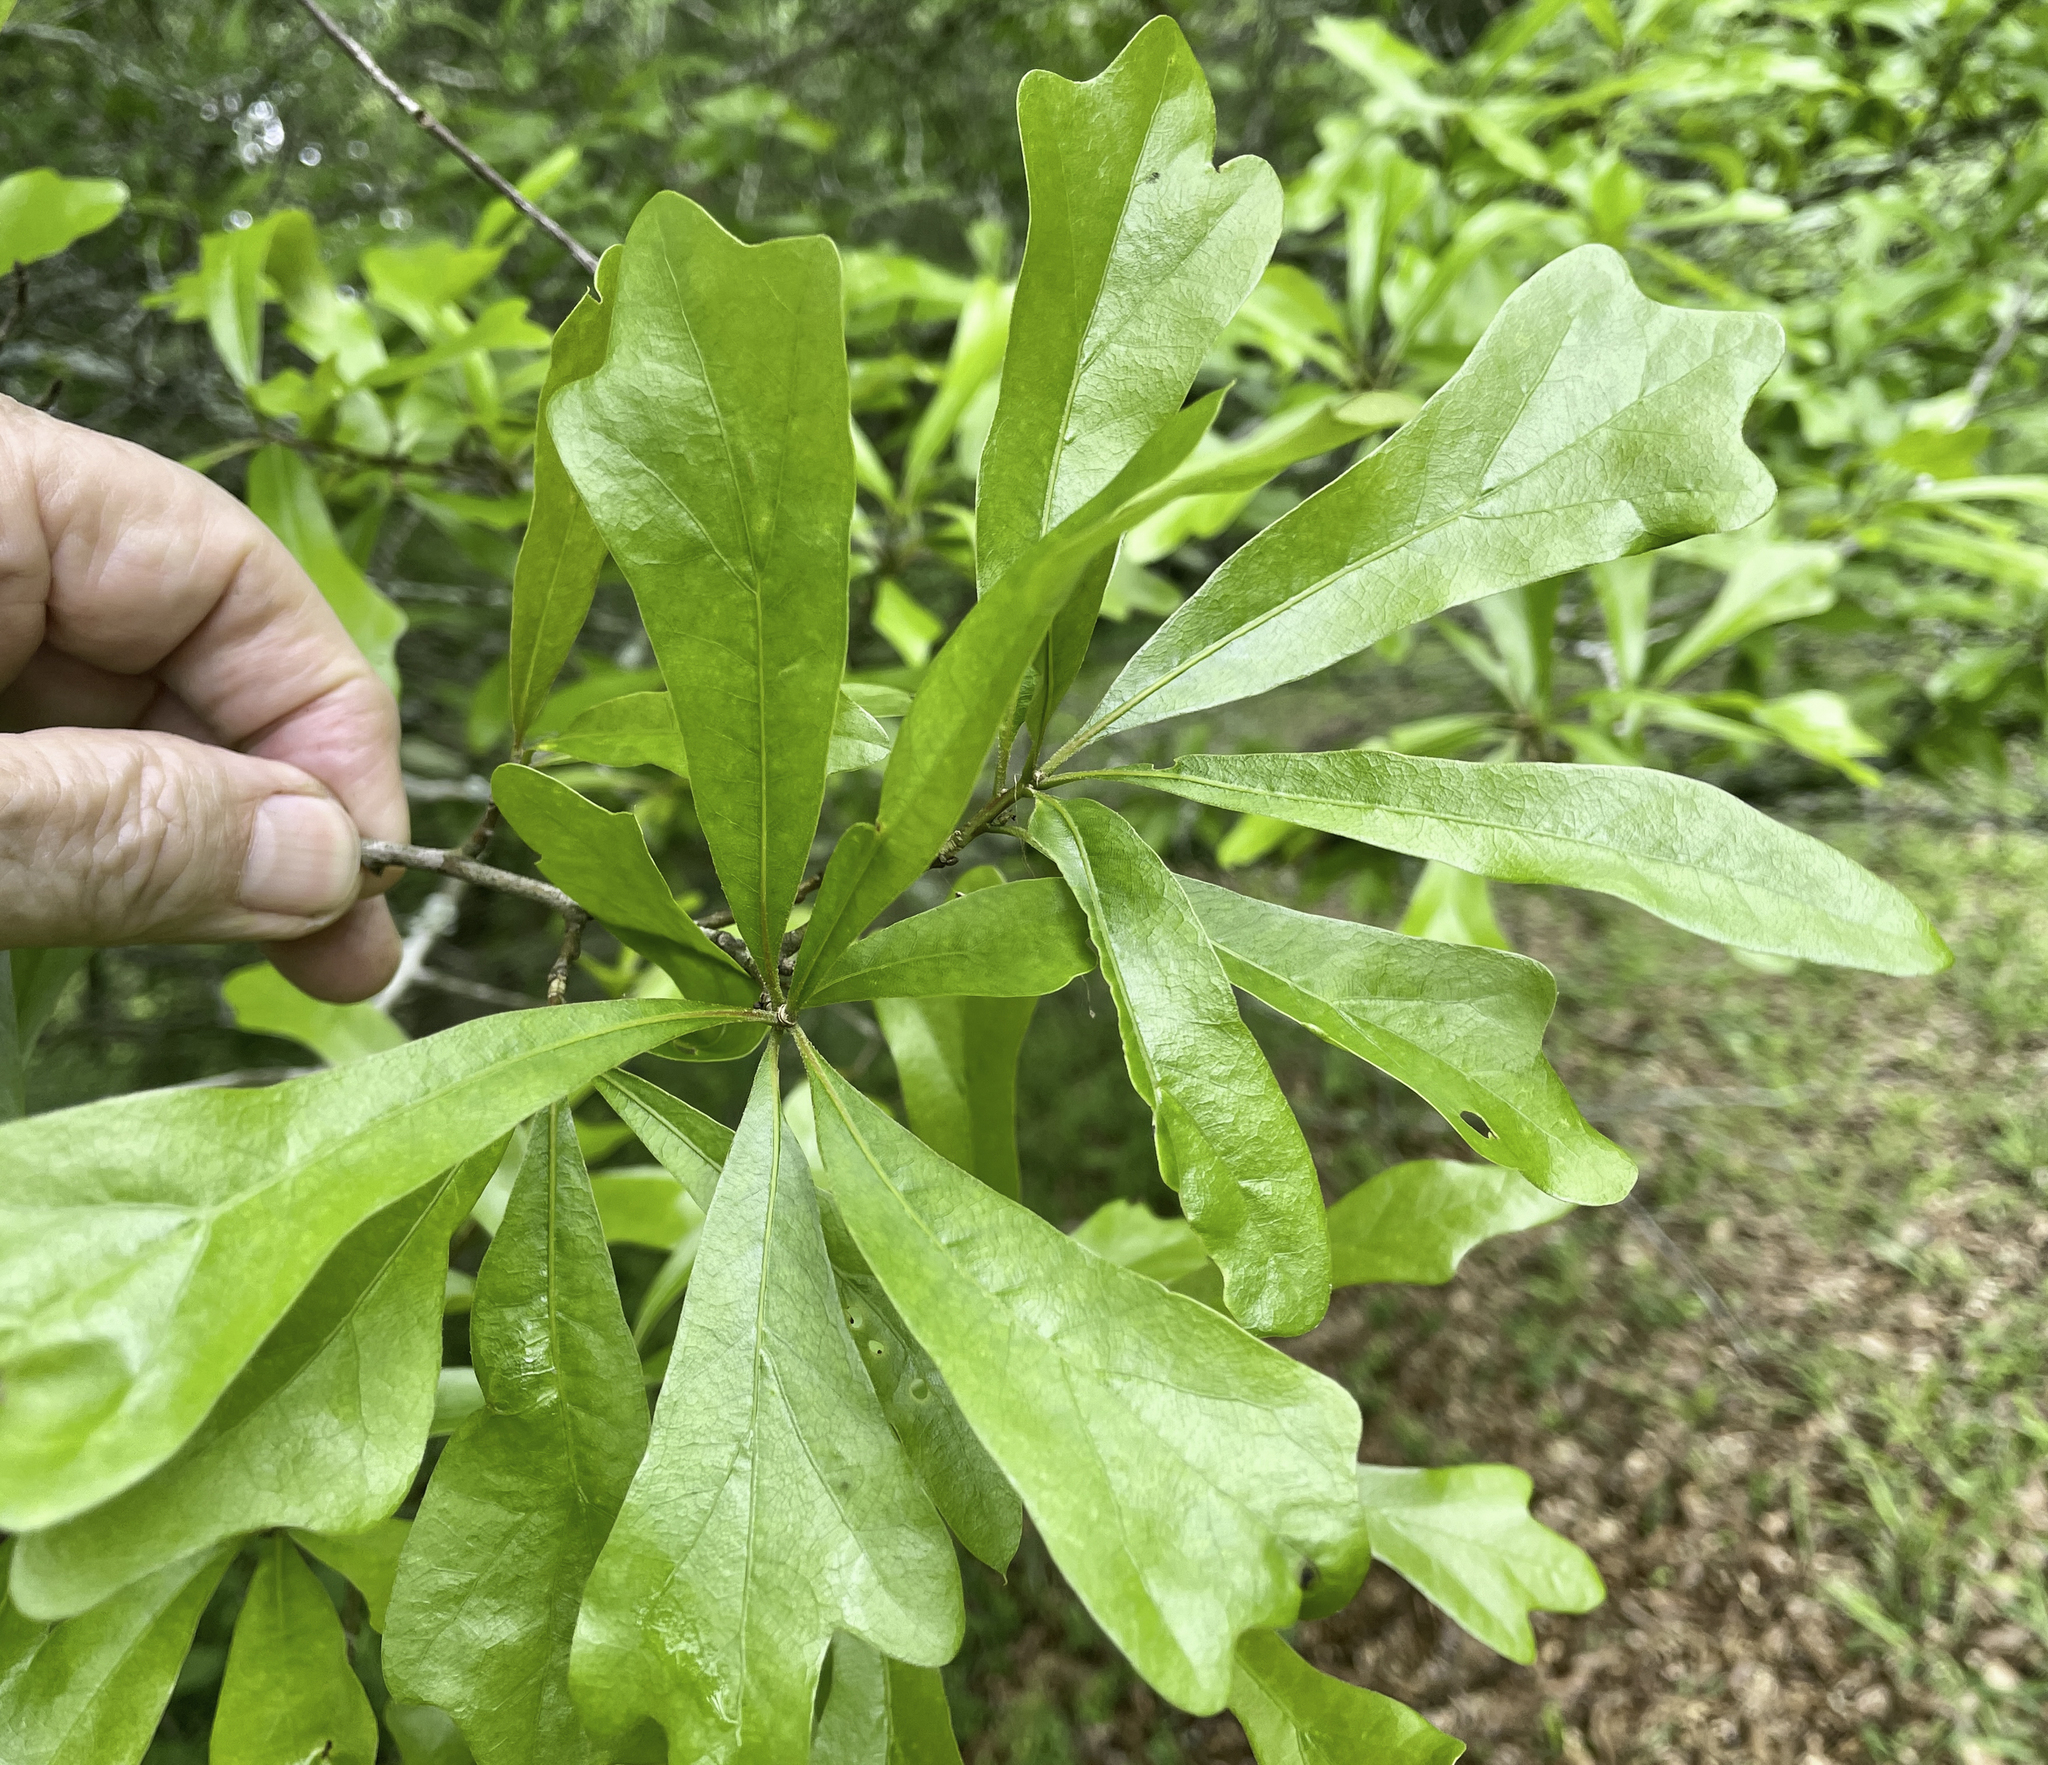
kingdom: Animalia
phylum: Arthropoda
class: Insecta
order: Hymenoptera
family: Cynipidae
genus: Amphibolips
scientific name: Amphibolips
